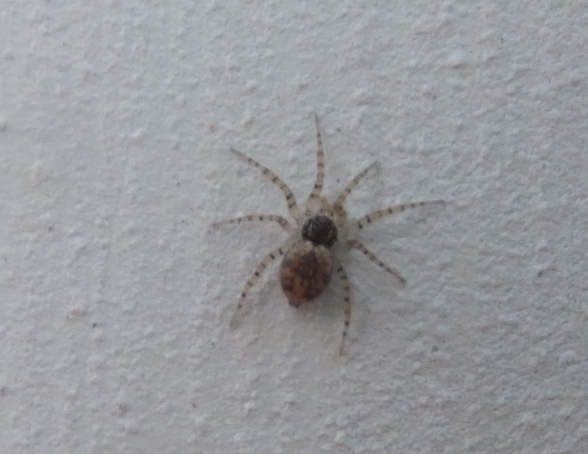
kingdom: Animalia
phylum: Arthropoda
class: Arachnida
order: Araneae
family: Oecobiidae
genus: Oecobius
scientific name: Oecobius maculatus
